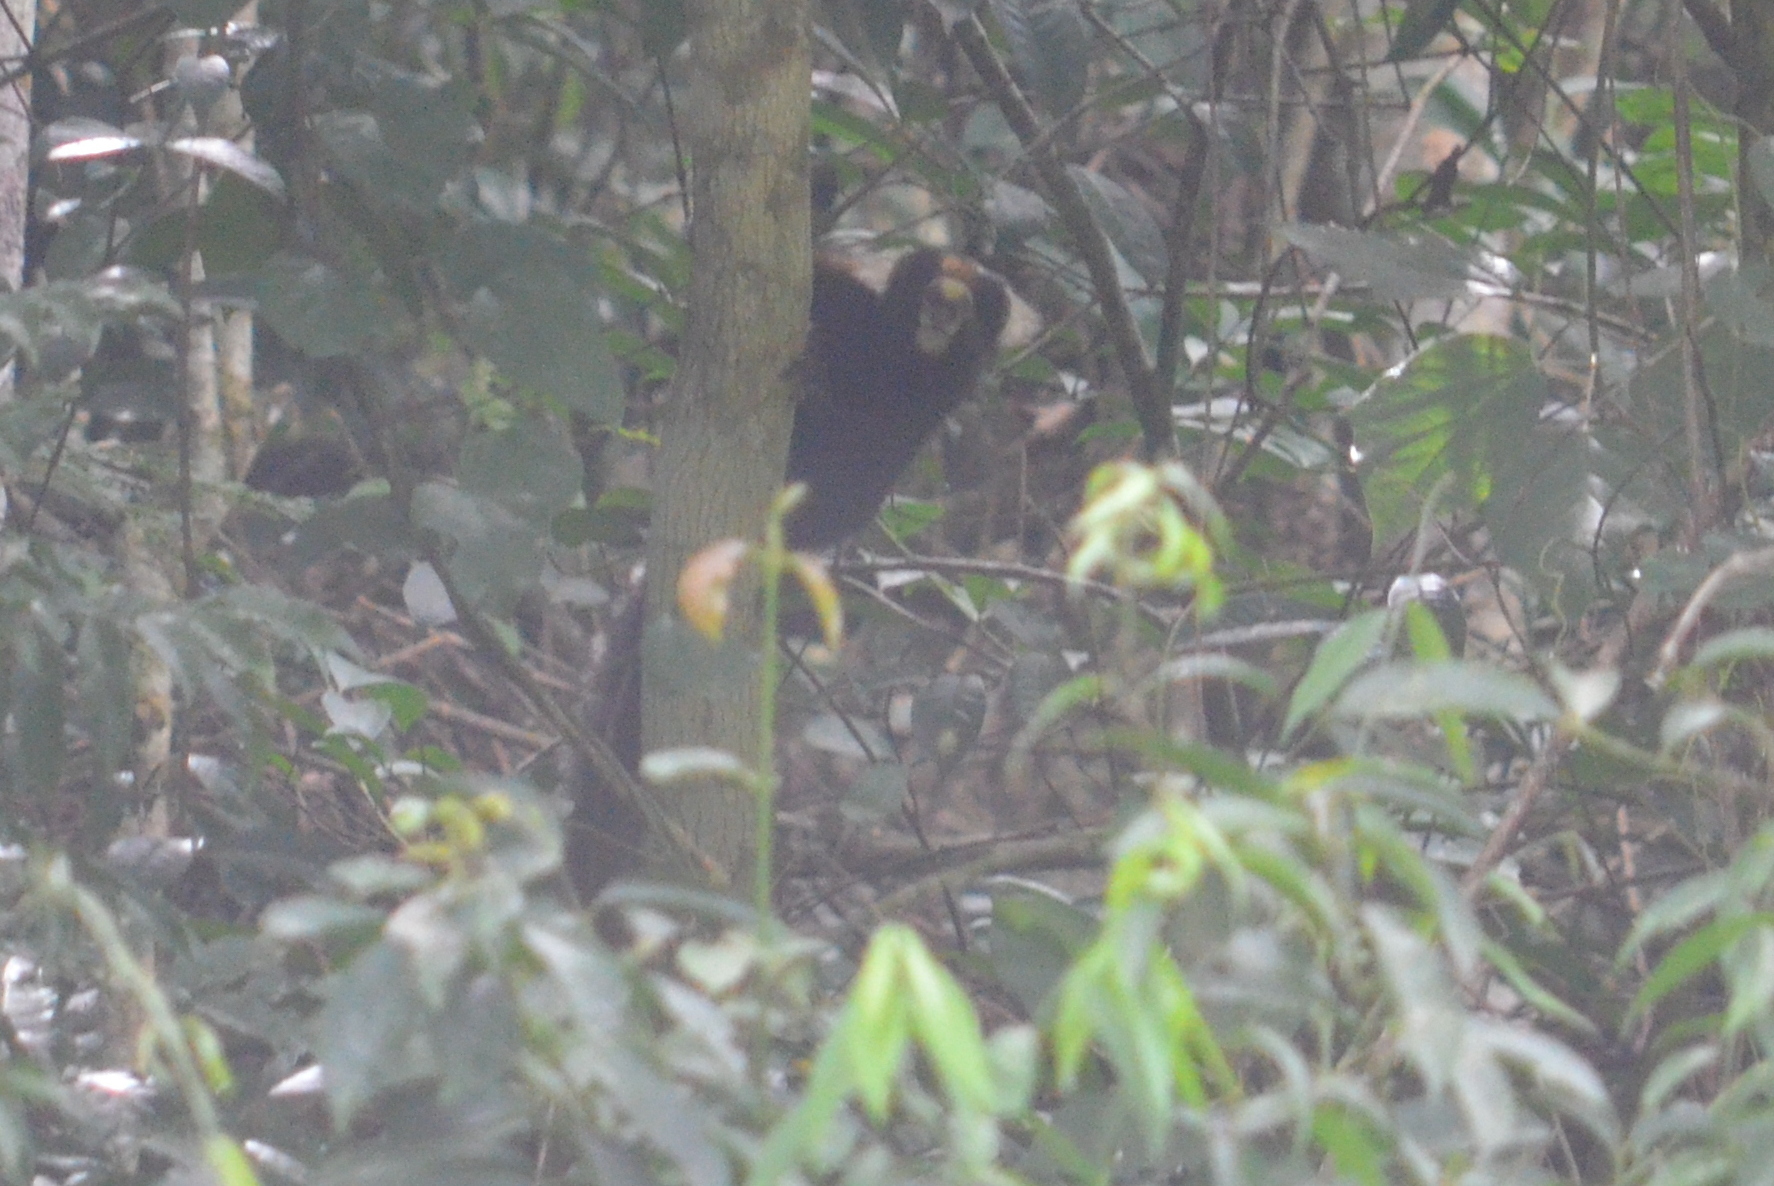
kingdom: Animalia
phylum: Chordata
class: Mammalia
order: Primates
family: Callitrichidae
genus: Callithrix
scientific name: Callithrix aurita
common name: Buffy-tufted marmoset
